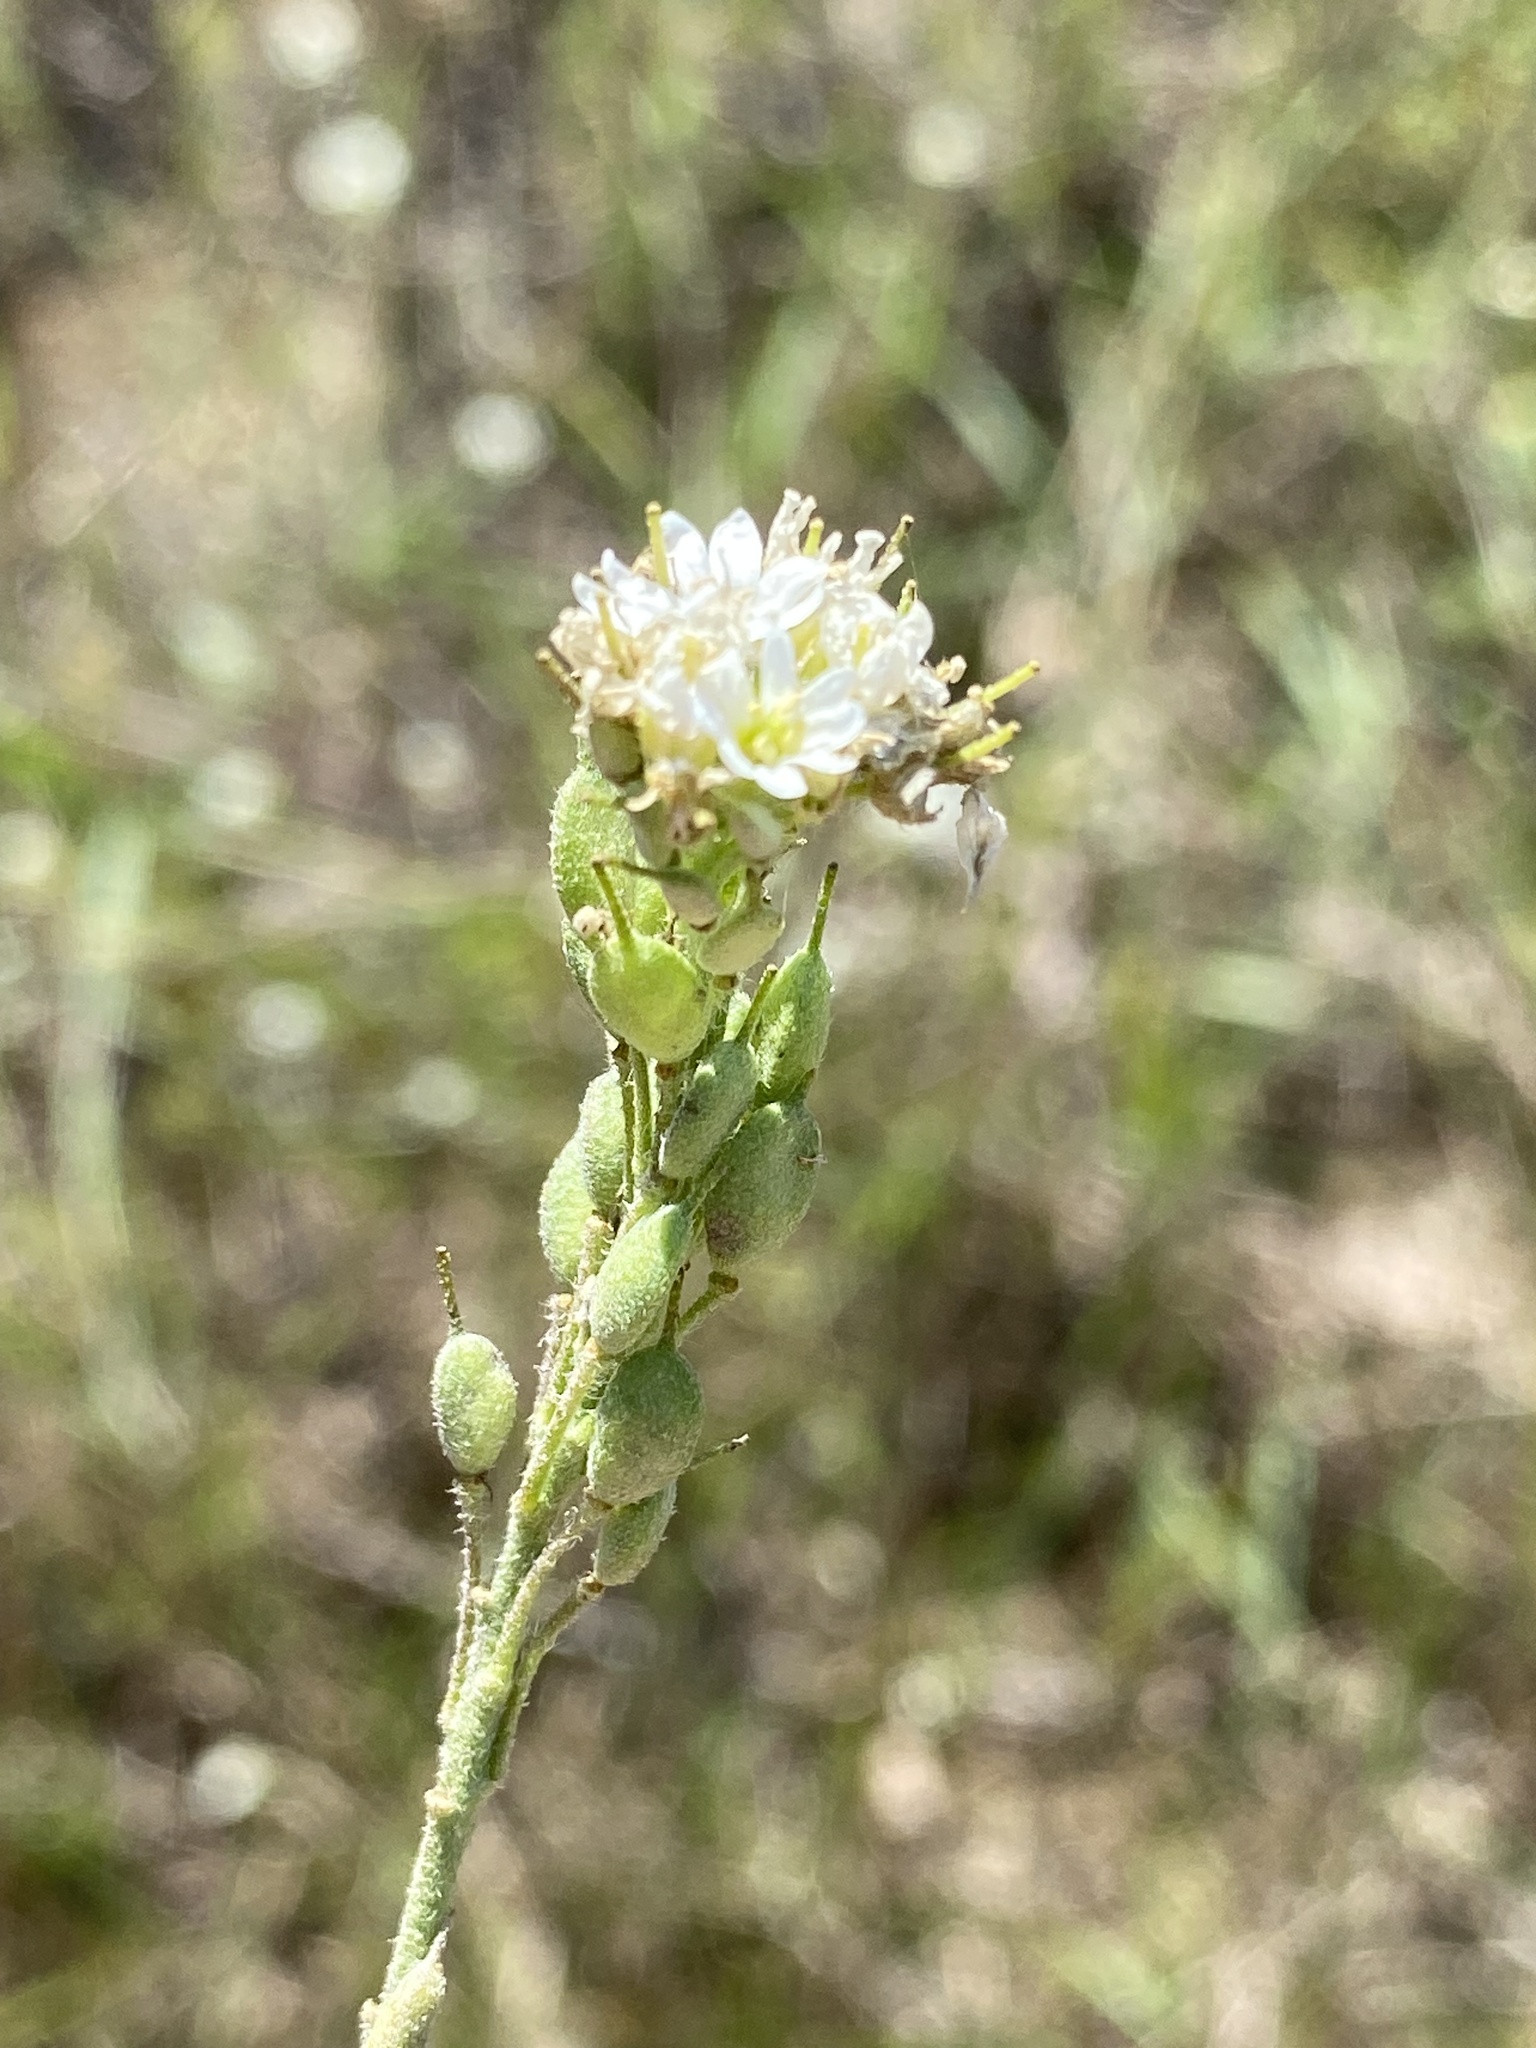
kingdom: Plantae
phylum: Tracheophyta
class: Magnoliopsida
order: Brassicales
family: Brassicaceae
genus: Berteroa
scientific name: Berteroa incana
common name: Hoary alison
